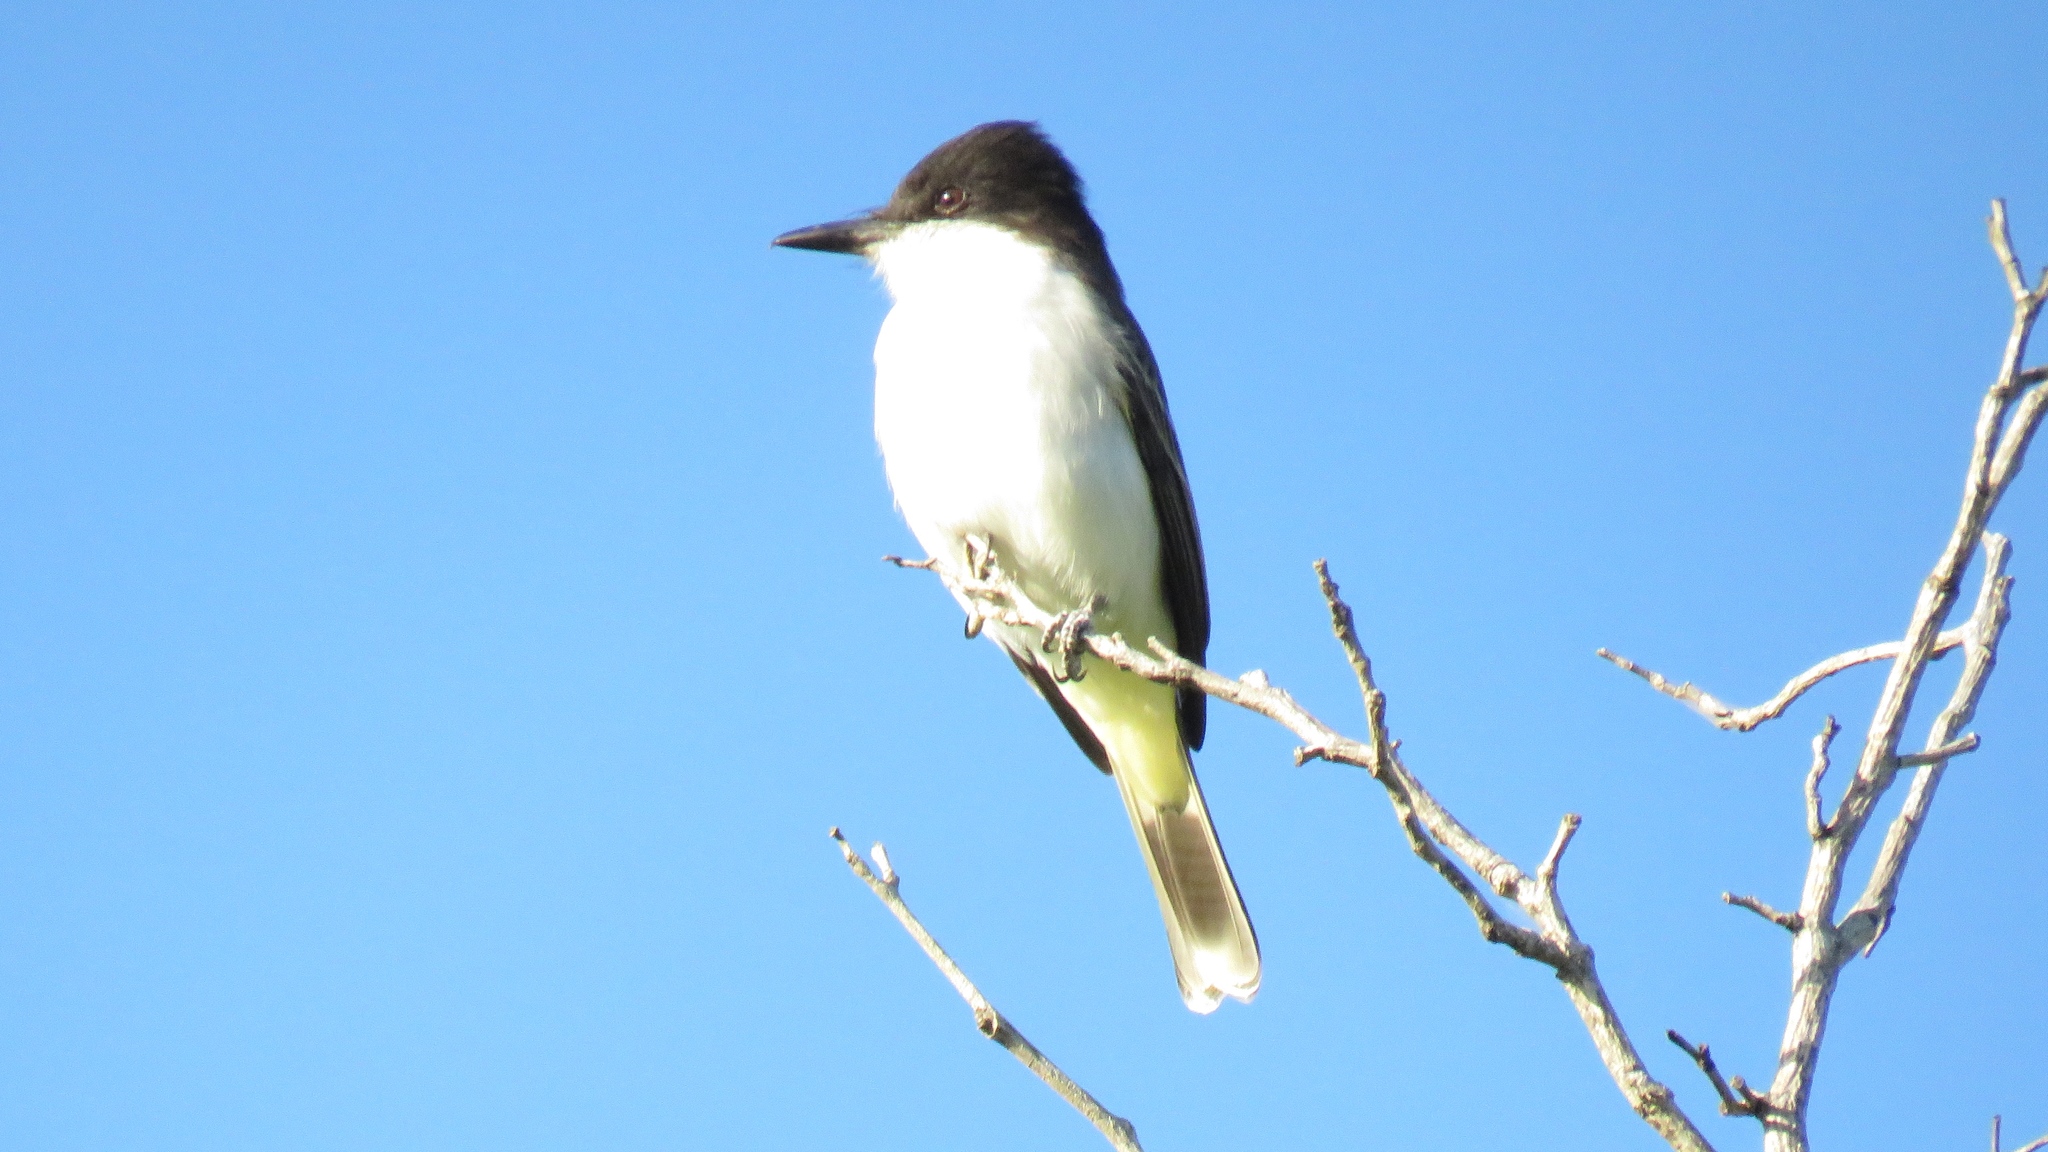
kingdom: Animalia
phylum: Chordata
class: Aves
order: Passeriformes
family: Tyrannidae
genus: Tyrannus
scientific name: Tyrannus caudifasciatus
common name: Loggerhead kingbird
